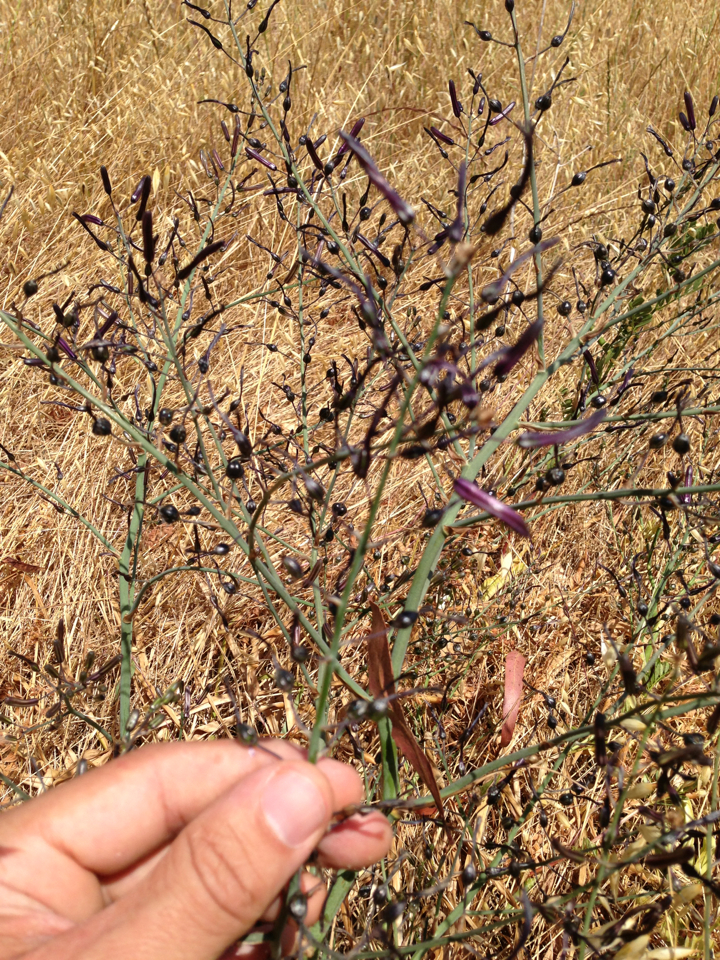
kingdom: Plantae
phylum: Tracheophyta
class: Liliopsida
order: Asparagales
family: Asparagaceae
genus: Chlorogalum
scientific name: Chlorogalum pomeridianum
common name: Amole
